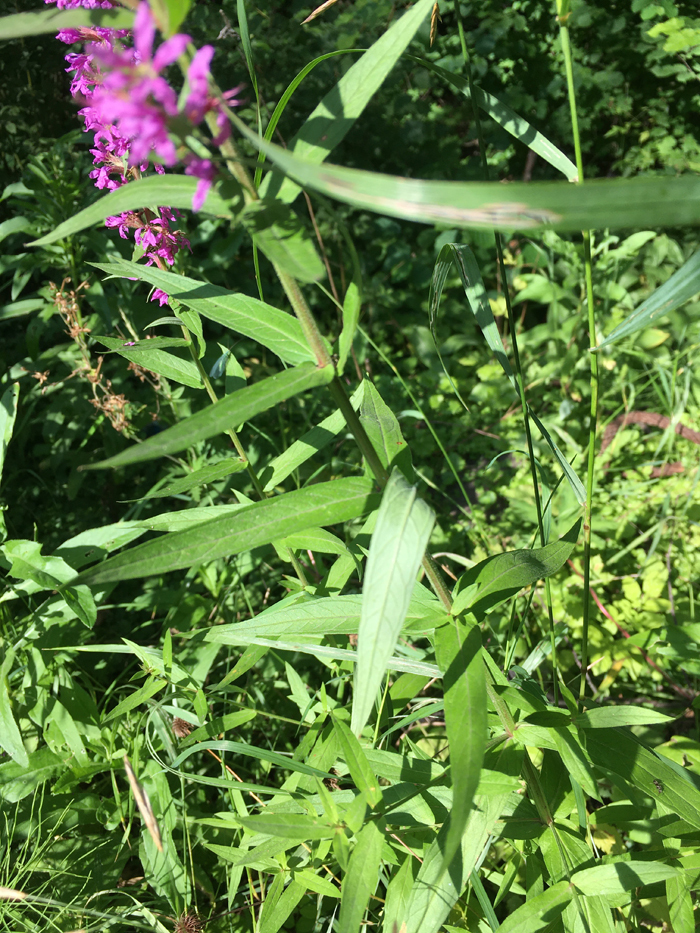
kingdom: Plantae
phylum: Tracheophyta
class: Magnoliopsida
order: Myrtales
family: Lythraceae
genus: Lythrum
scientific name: Lythrum salicaria
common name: Purple loosestrife
